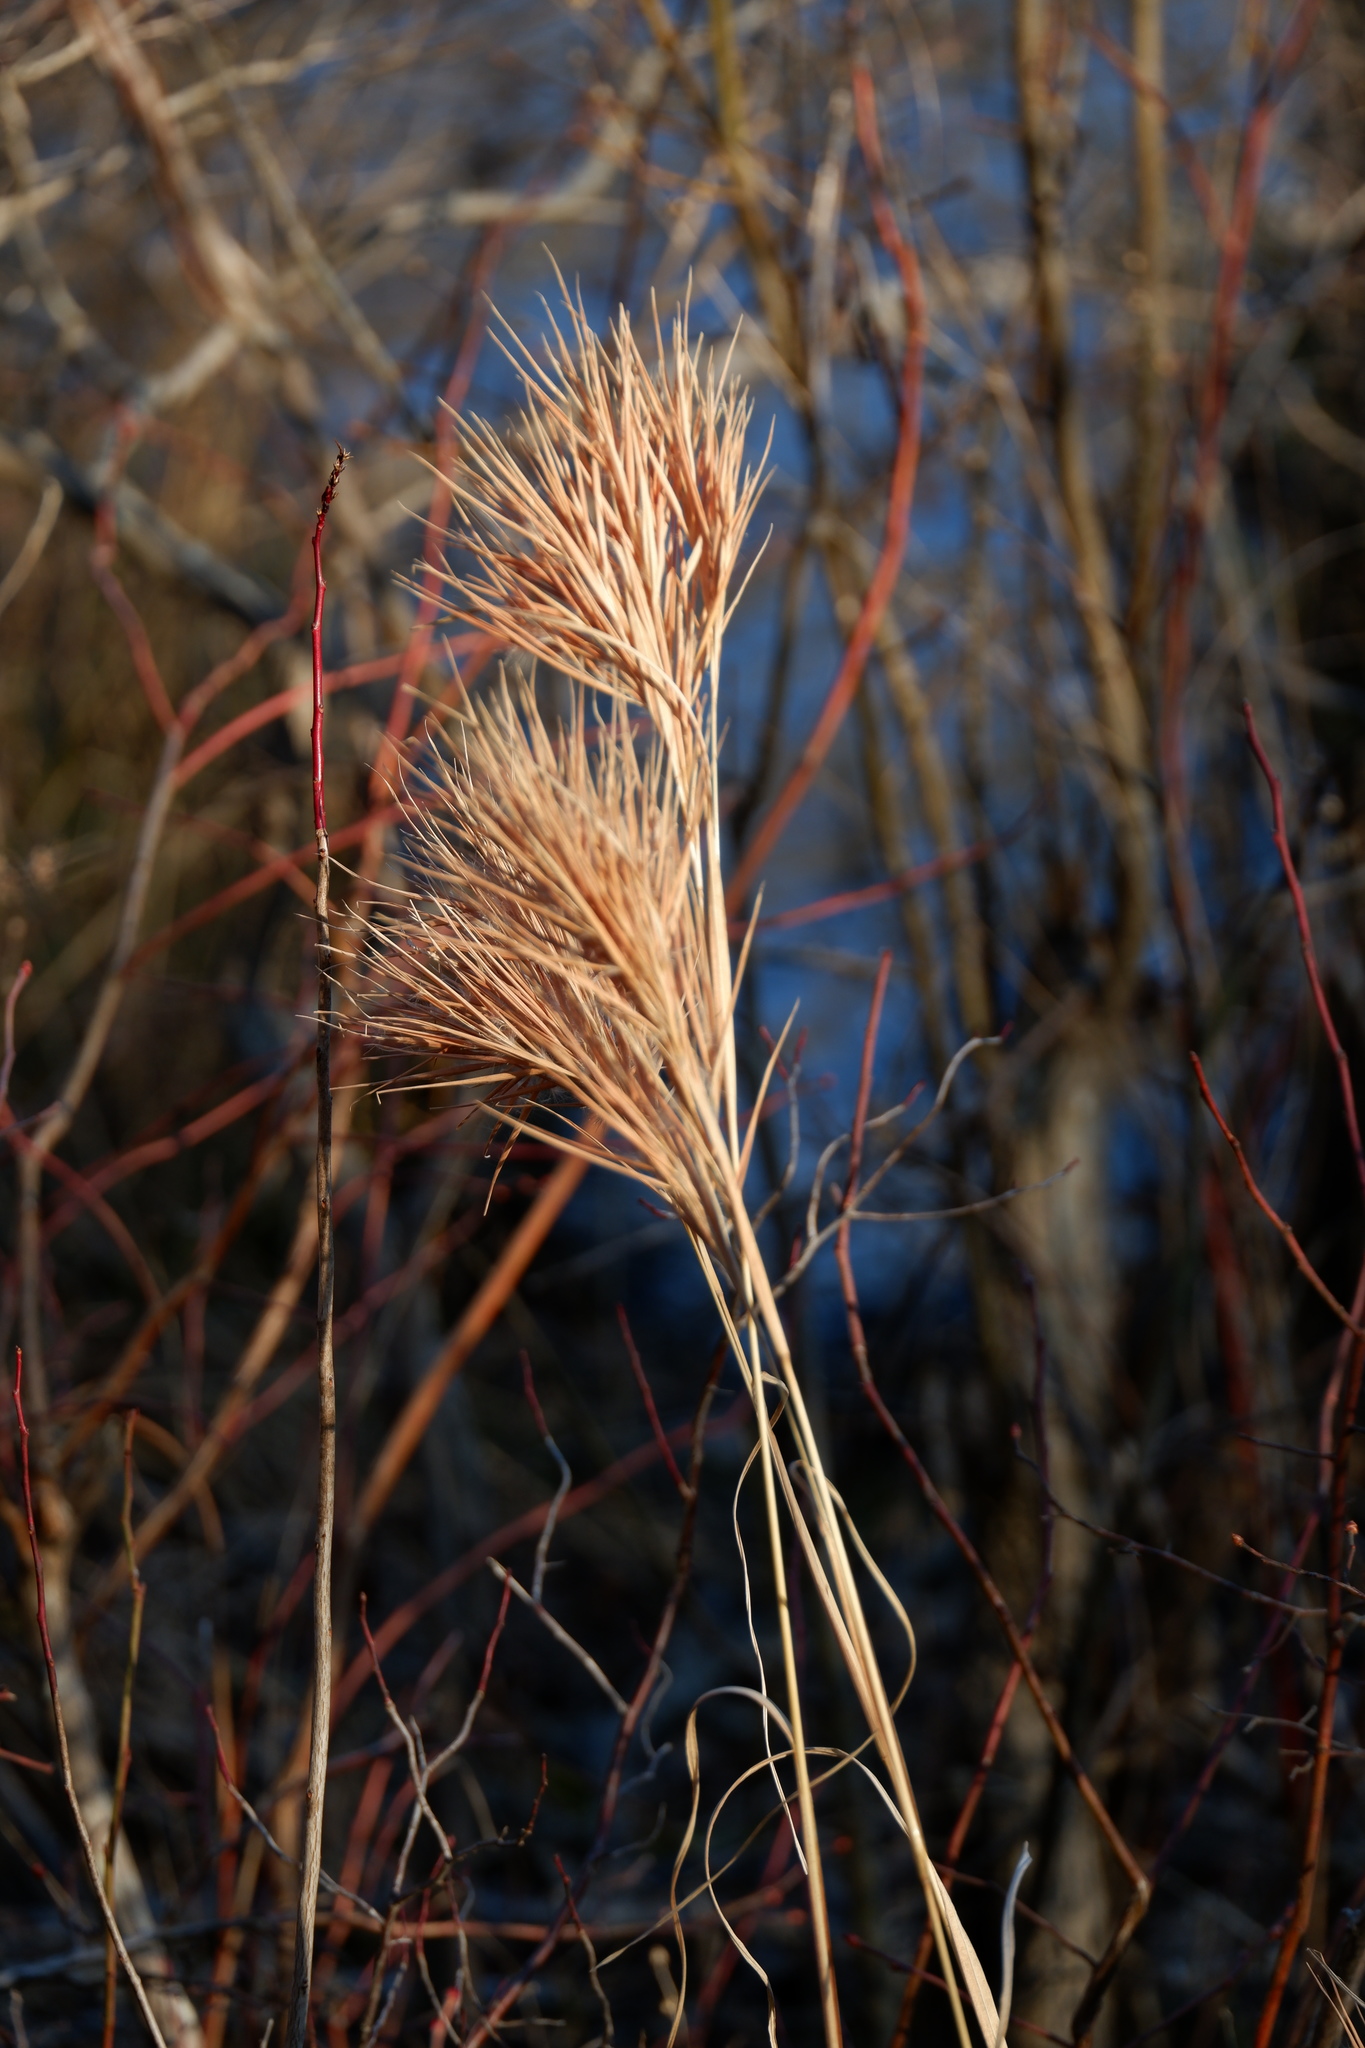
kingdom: Plantae
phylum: Tracheophyta
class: Liliopsida
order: Poales
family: Poaceae
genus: Andropogon
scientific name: Andropogon glomeratus
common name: Bushy beard grass
